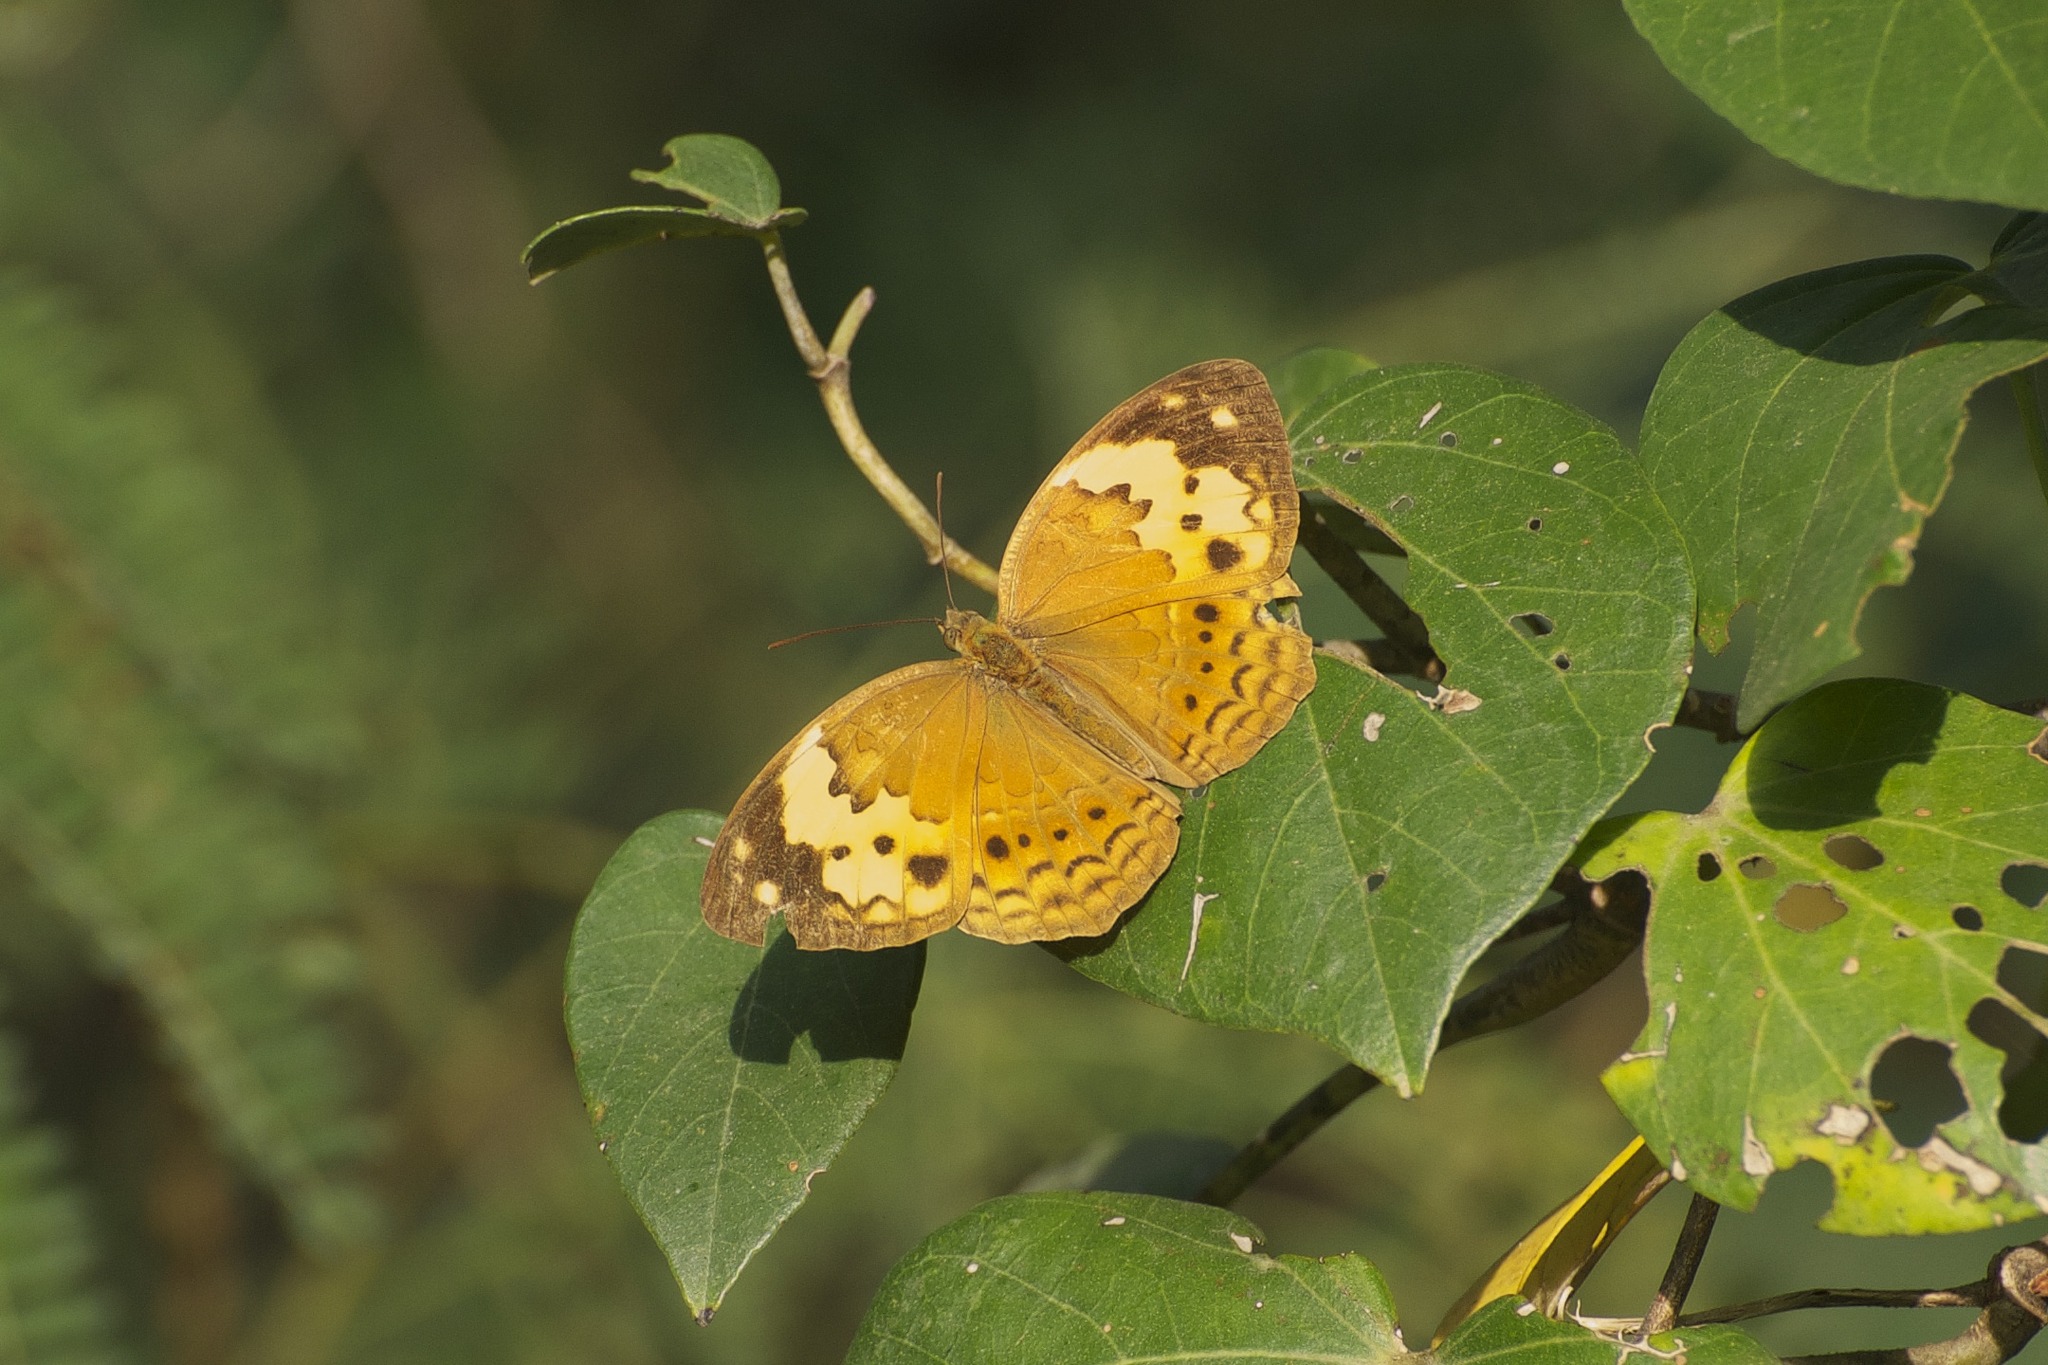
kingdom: Animalia
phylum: Arthropoda
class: Insecta
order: Lepidoptera
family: Nymphalidae
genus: Cupha
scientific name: Cupha erymanthis
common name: Rustic
